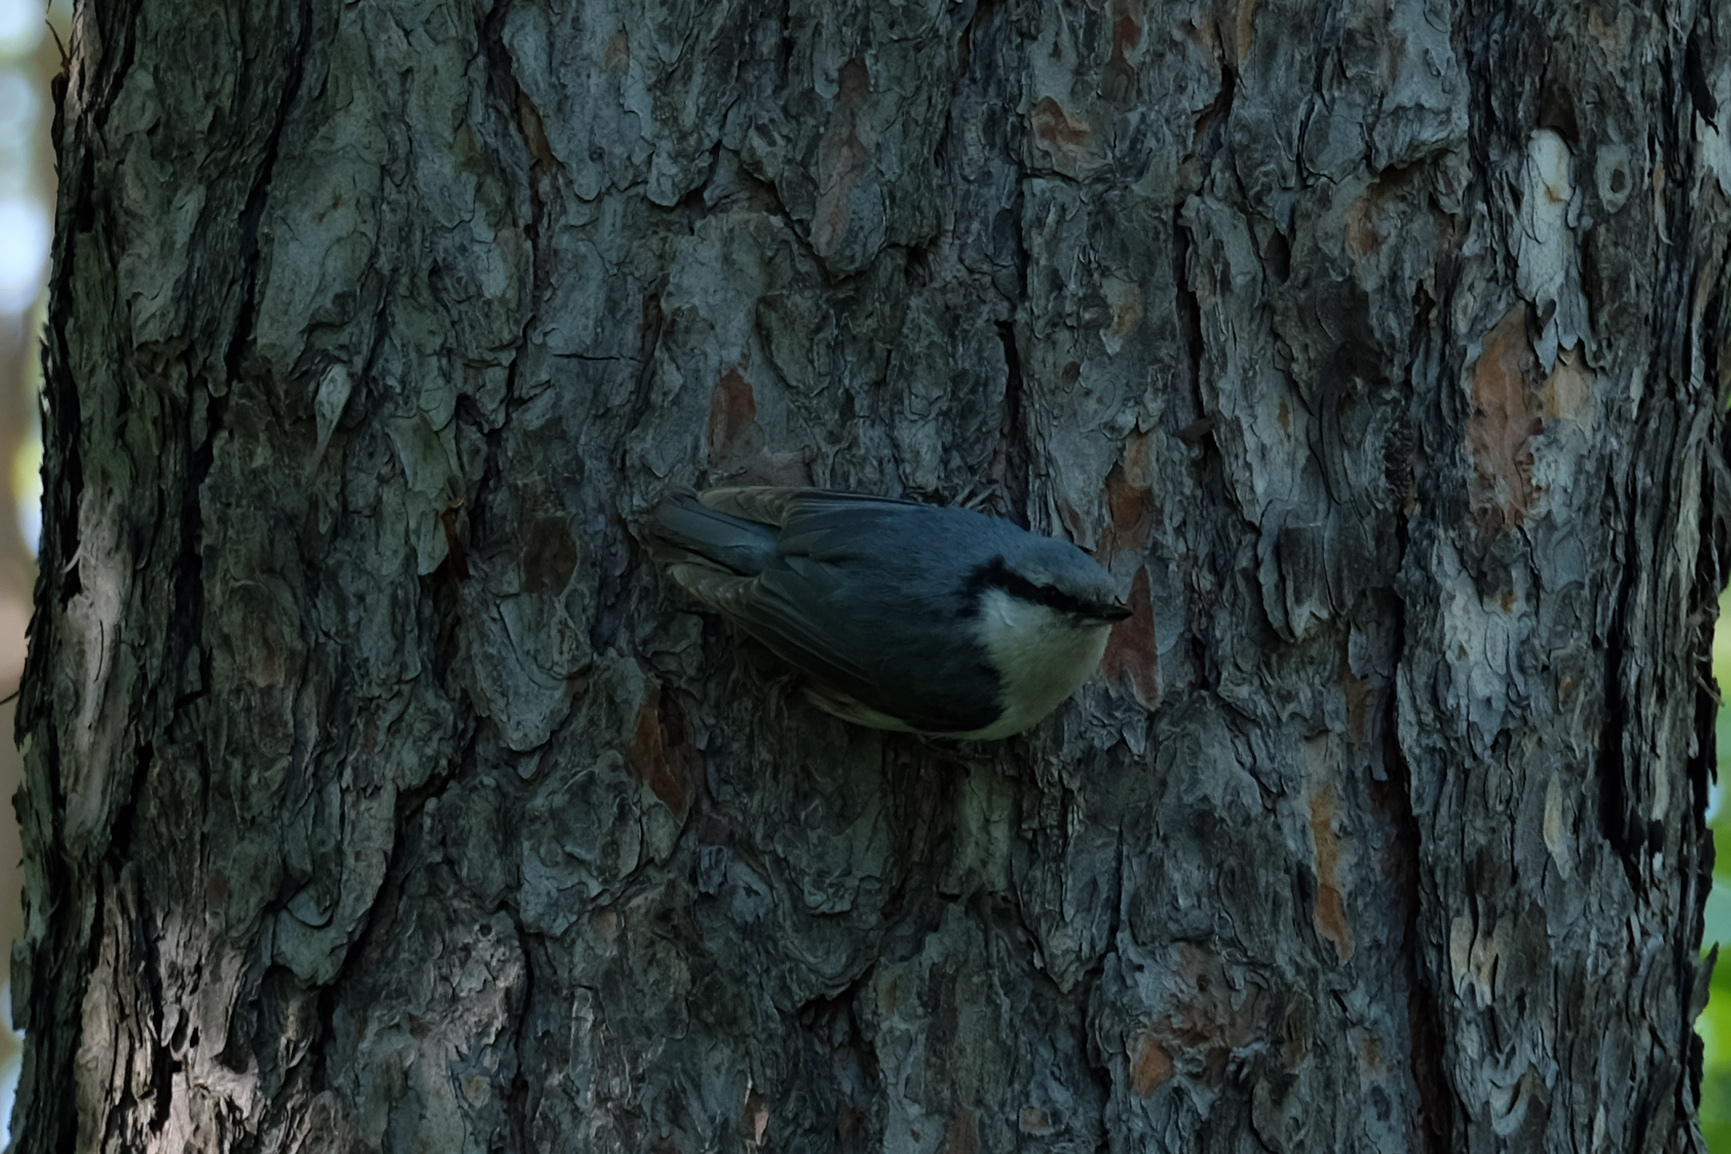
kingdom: Animalia
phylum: Chordata
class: Aves
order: Passeriformes
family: Sittidae
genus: Sitta
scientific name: Sitta europaea
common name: Eurasian nuthatch
